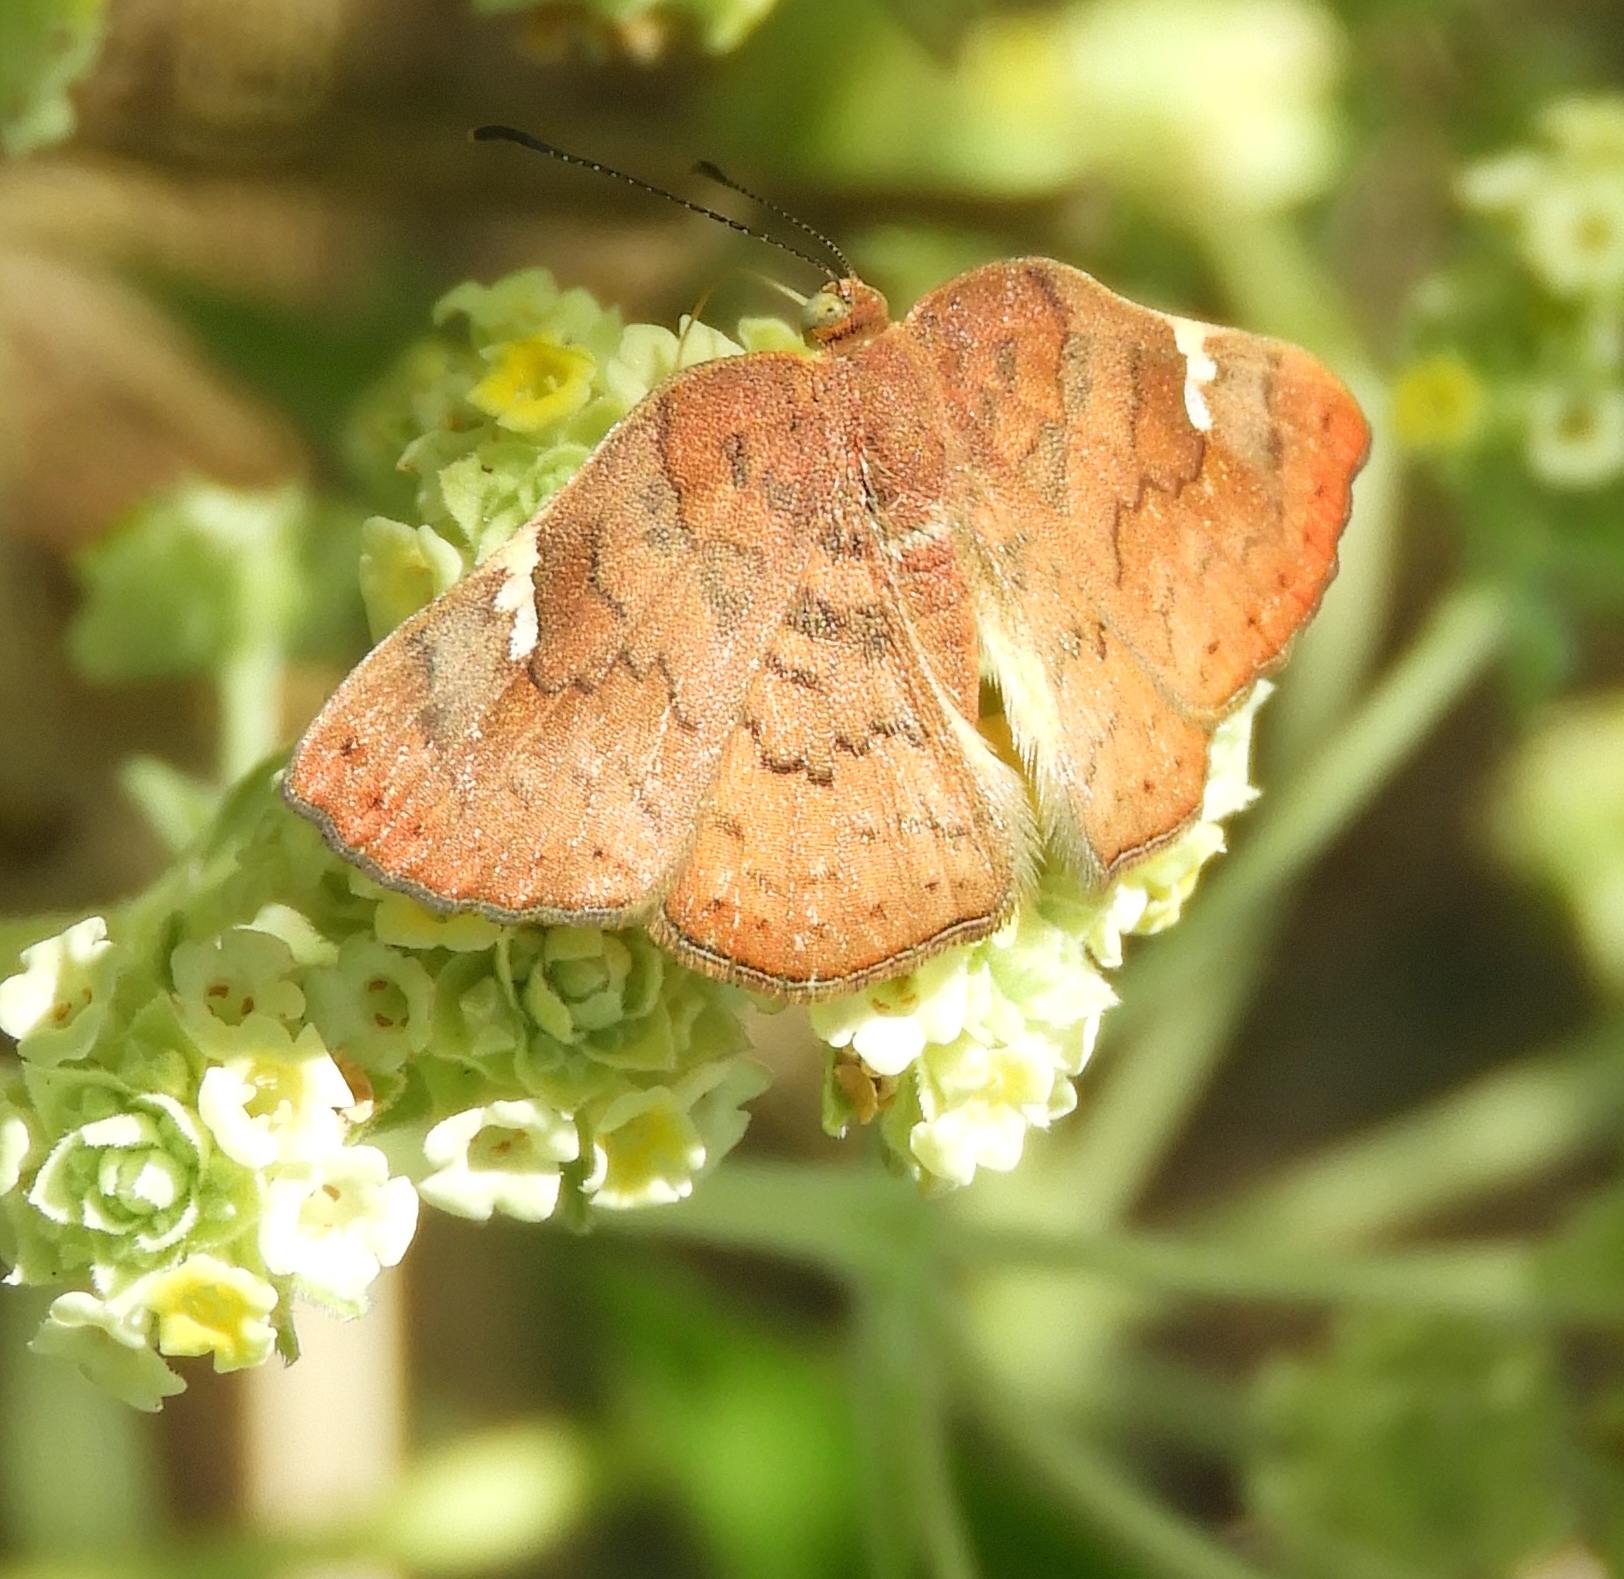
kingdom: Animalia
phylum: Arthropoda
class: Insecta
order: Lepidoptera
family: Riodinidae
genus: Curvie
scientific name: Curvie emesia
